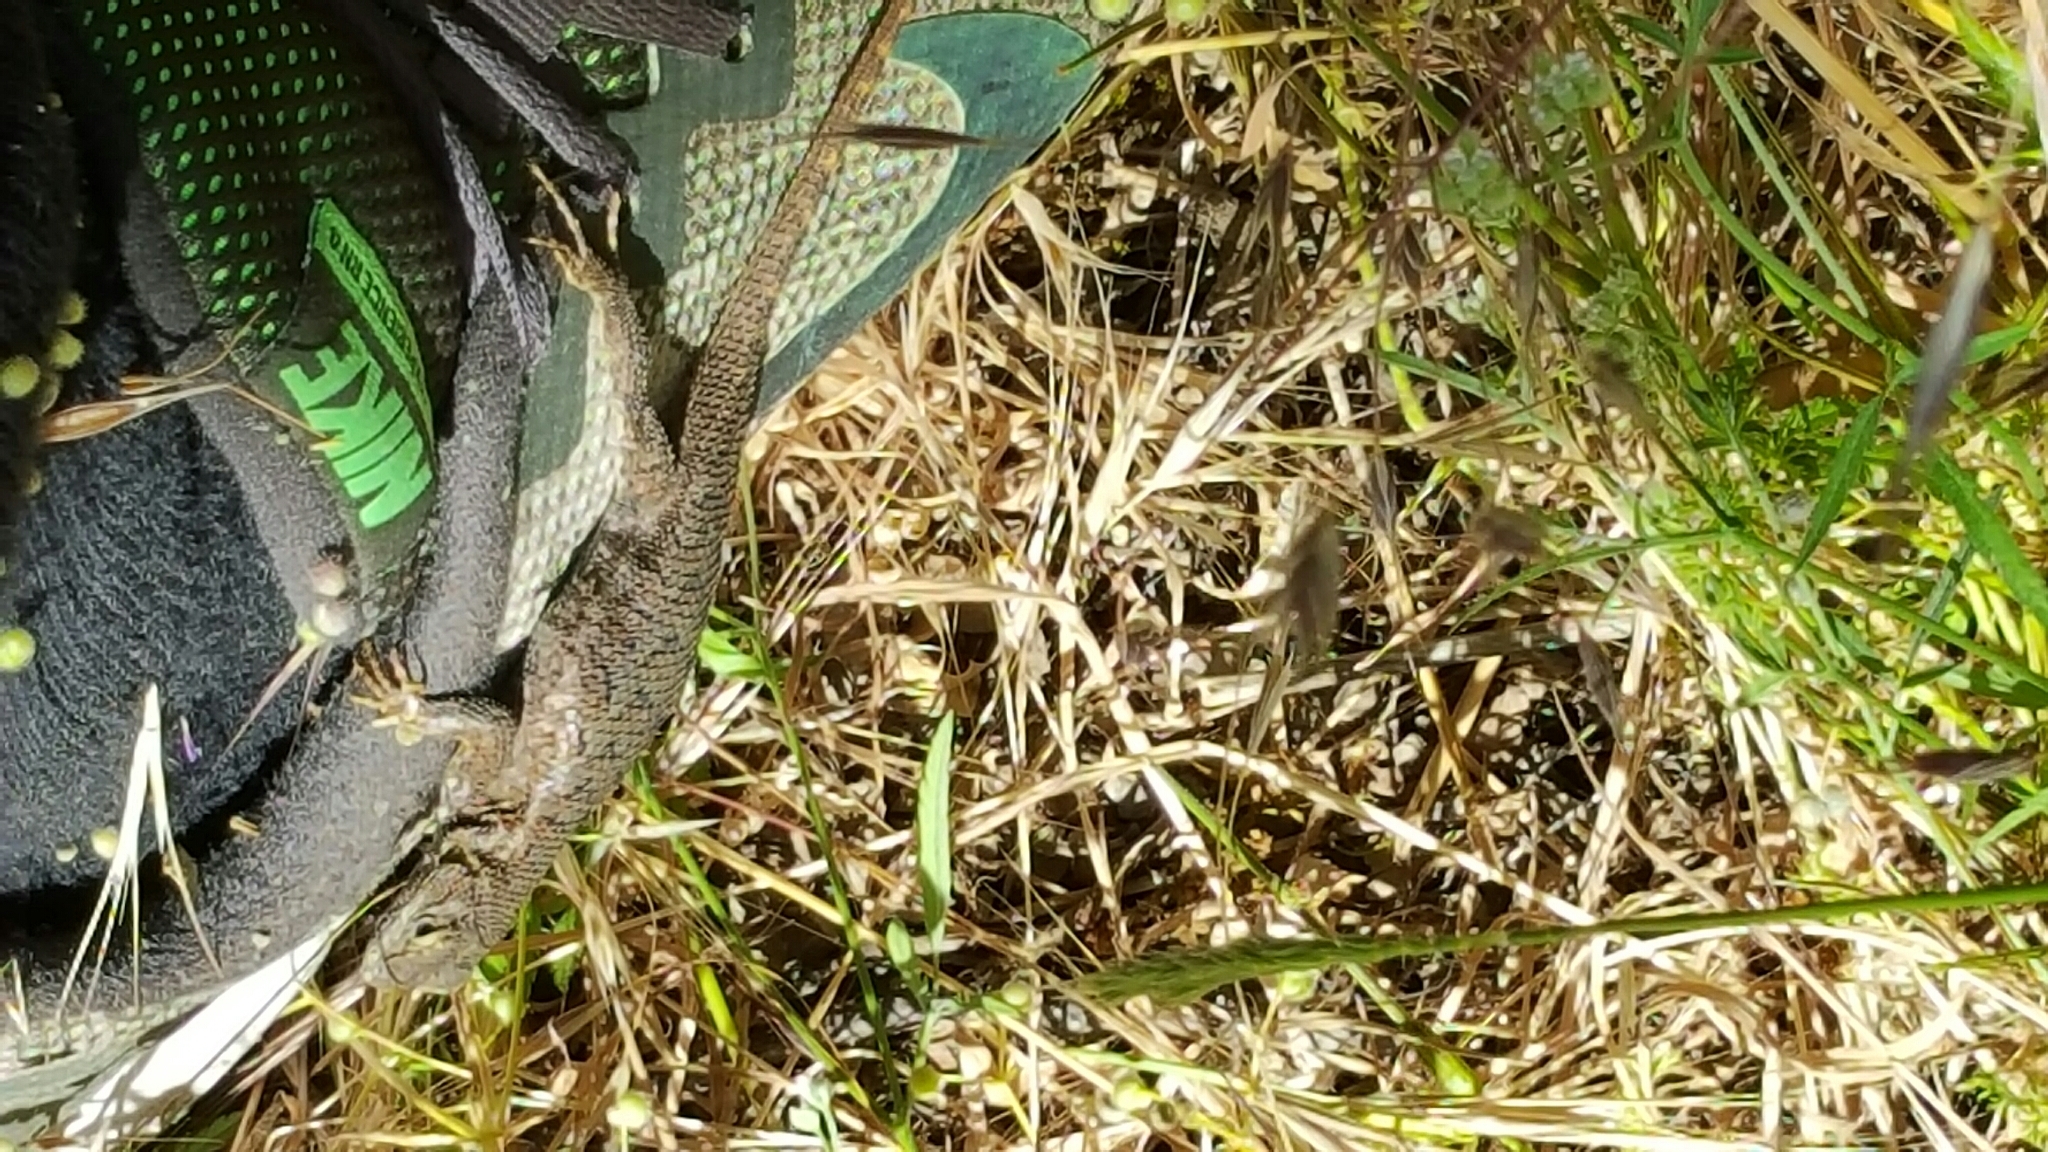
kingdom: Animalia
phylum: Chordata
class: Squamata
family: Phrynosomatidae
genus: Sceloporus
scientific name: Sceloporus occidentalis
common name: Western fence lizard
